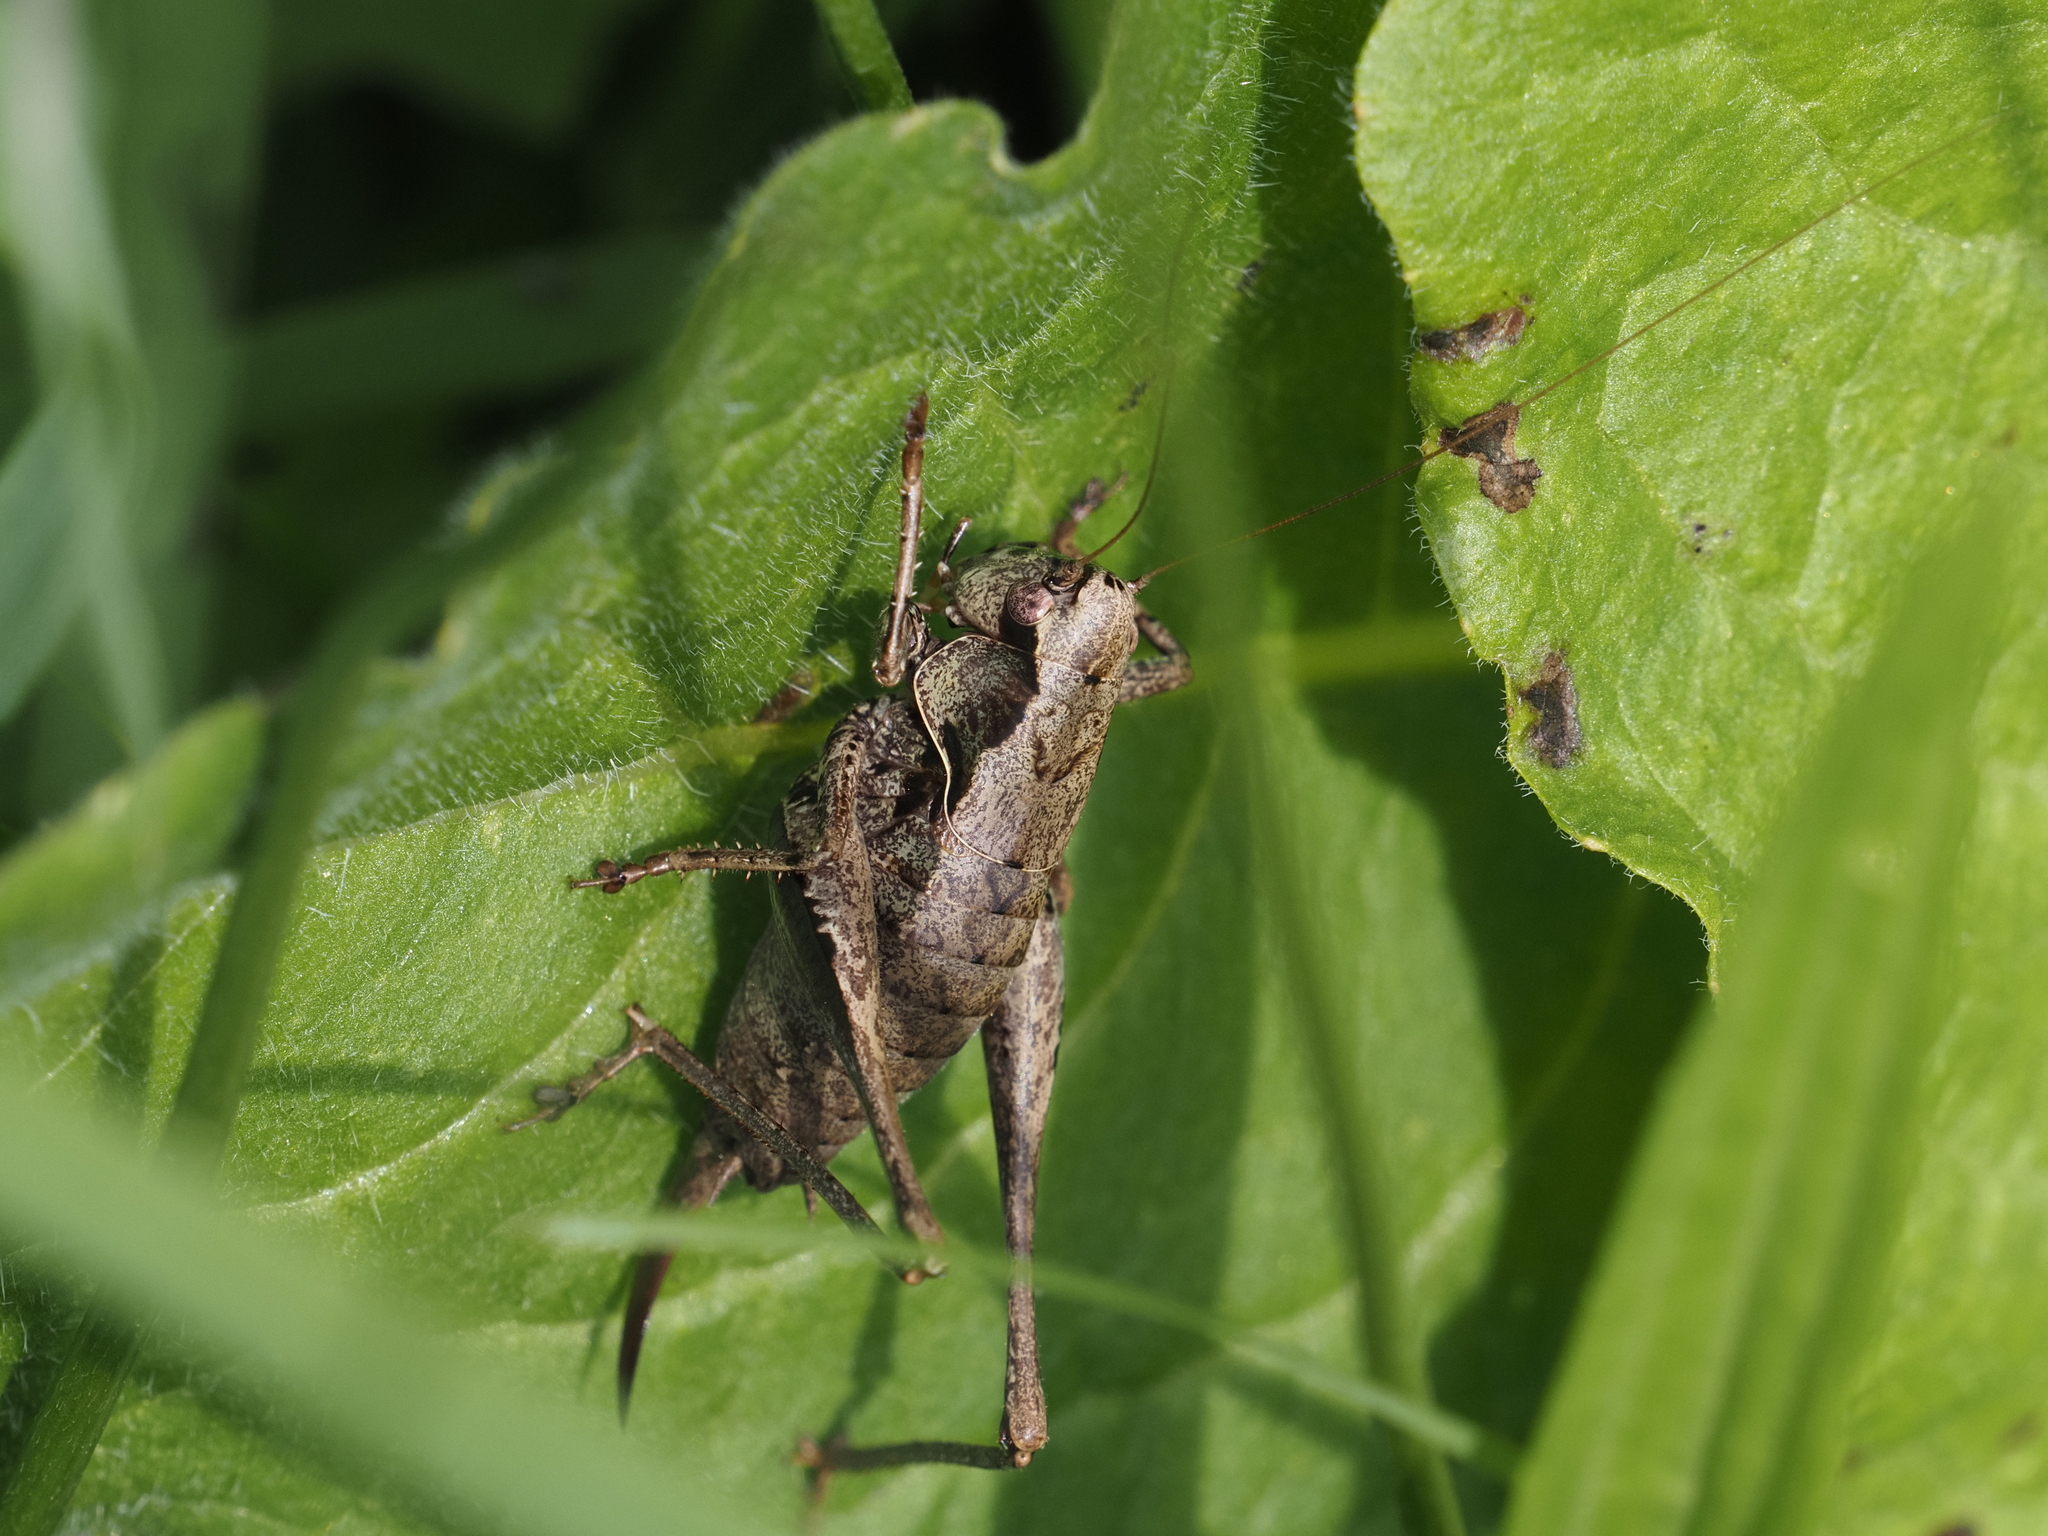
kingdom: Animalia
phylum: Arthropoda
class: Insecta
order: Orthoptera
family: Tettigoniidae
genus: Pholidoptera
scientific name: Pholidoptera griseoaptera
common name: Dark bush-cricket
